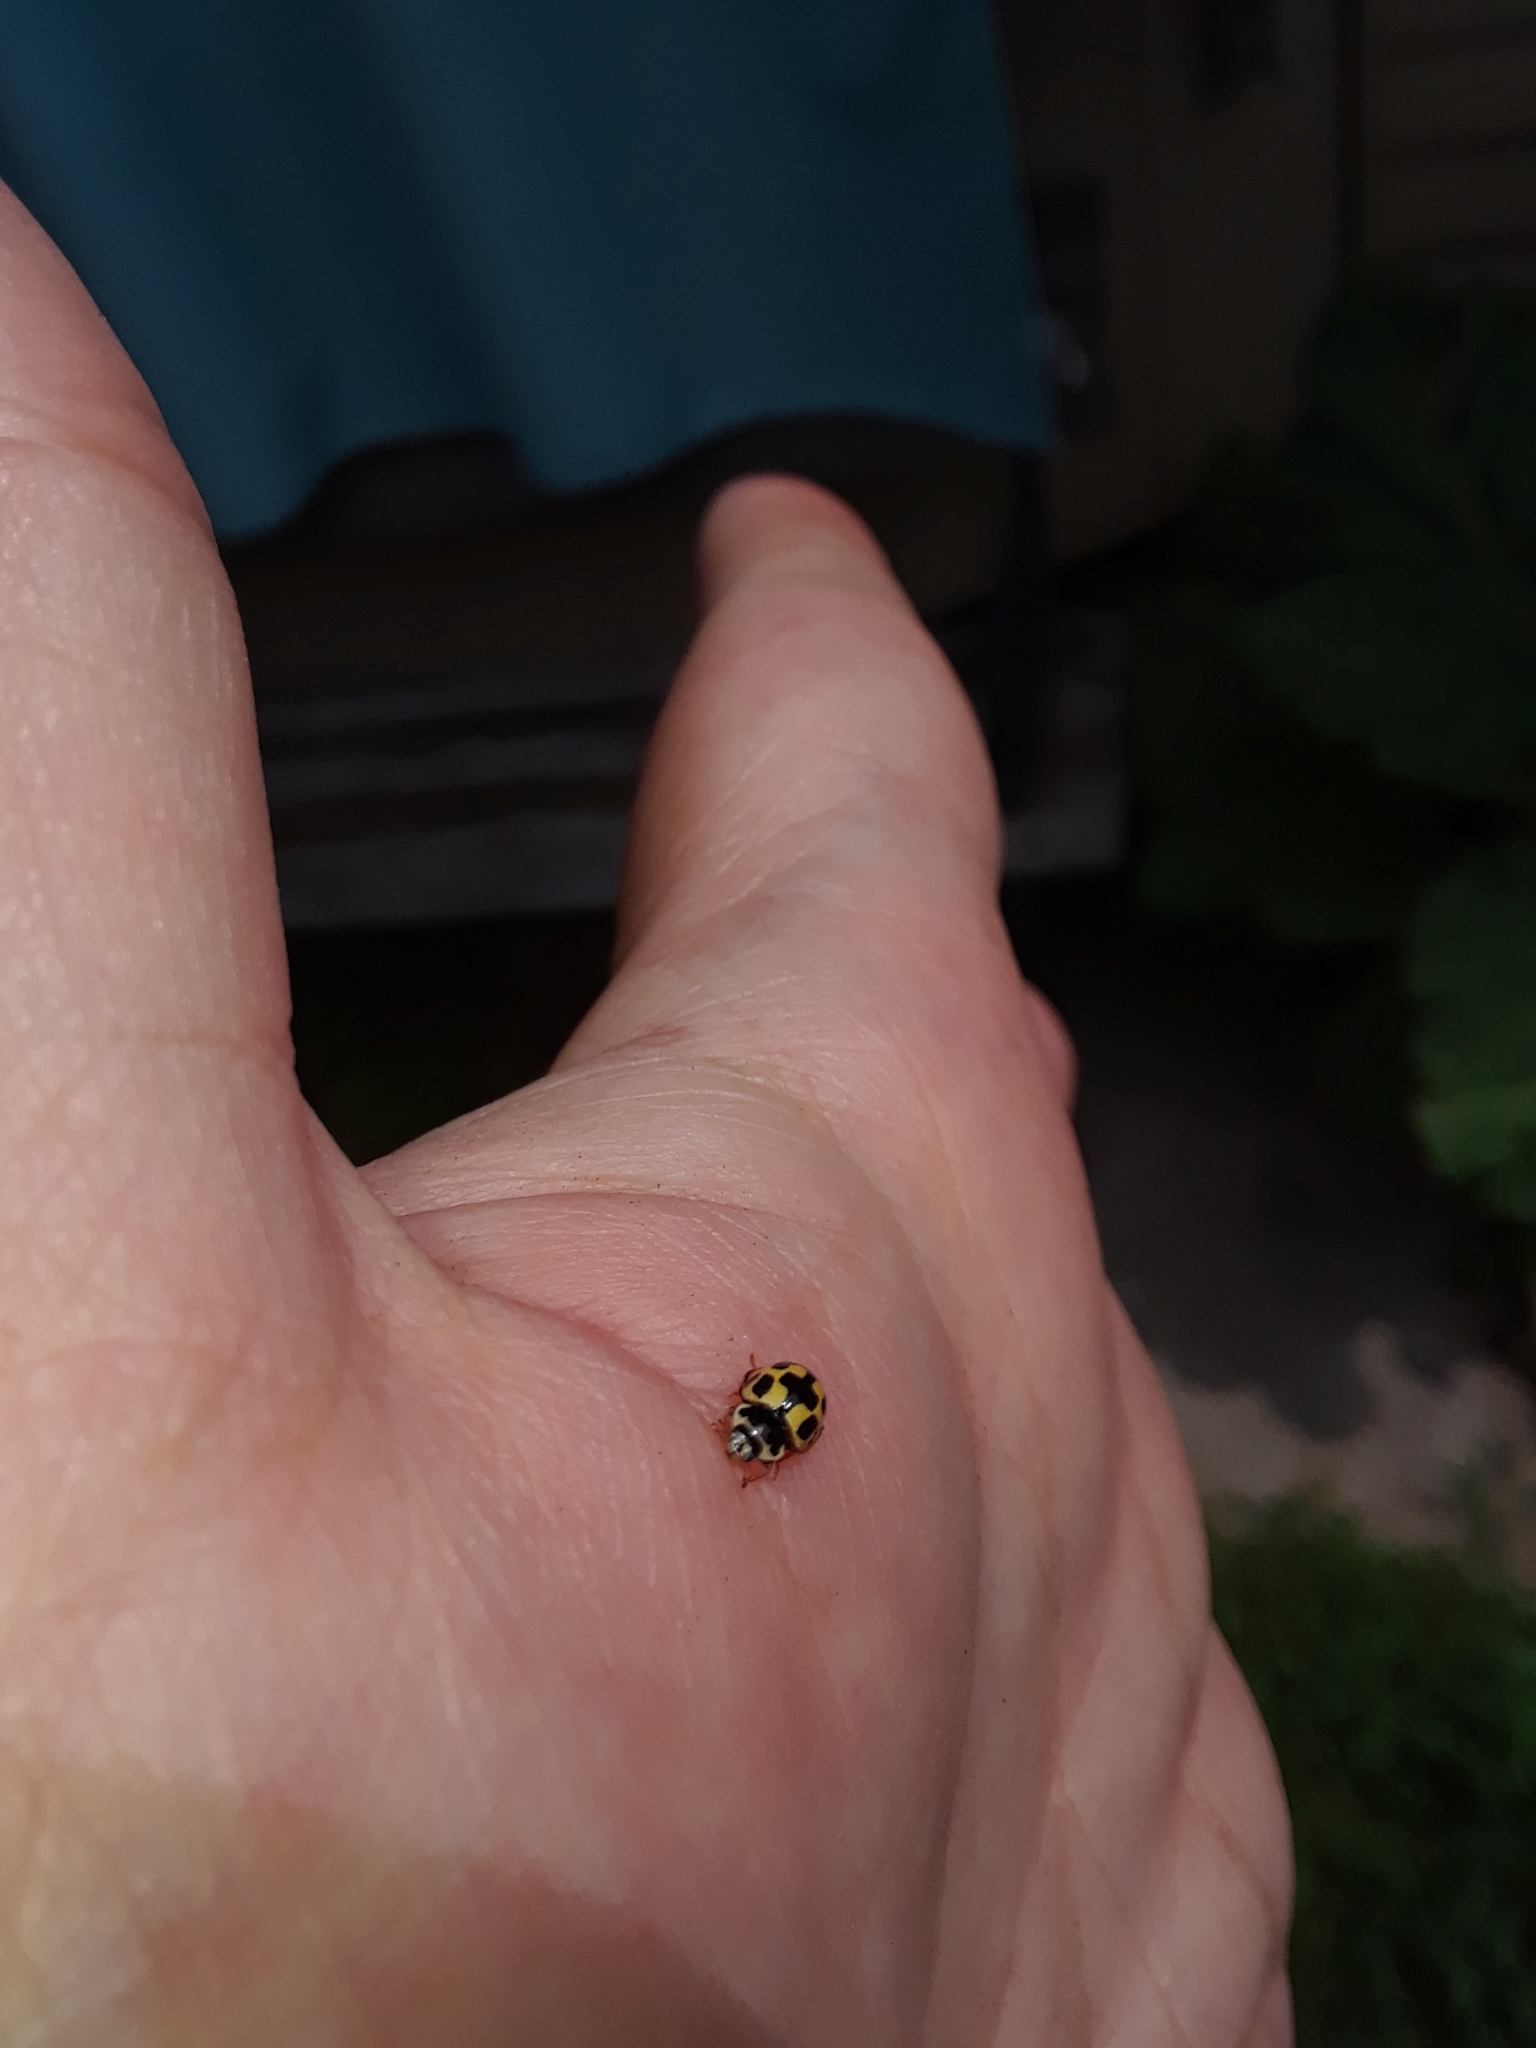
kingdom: Animalia
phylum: Arthropoda
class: Insecta
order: Coleoptera
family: Coccinellidae
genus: Propylaea
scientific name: Propylaea quatuordecimpunctata
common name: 14-spotted ladybird beetle
